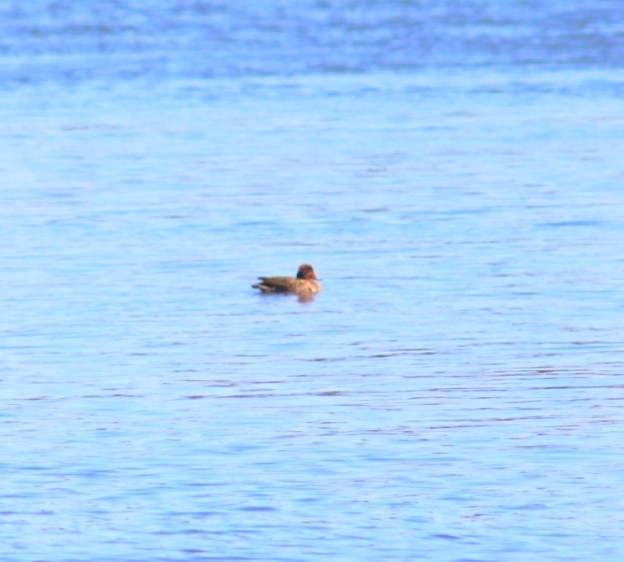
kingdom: Animalia
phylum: Chordata
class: Aves
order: Anseriformes
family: Anatidae
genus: Anas
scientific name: Anas crecca
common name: Eurasian teal
